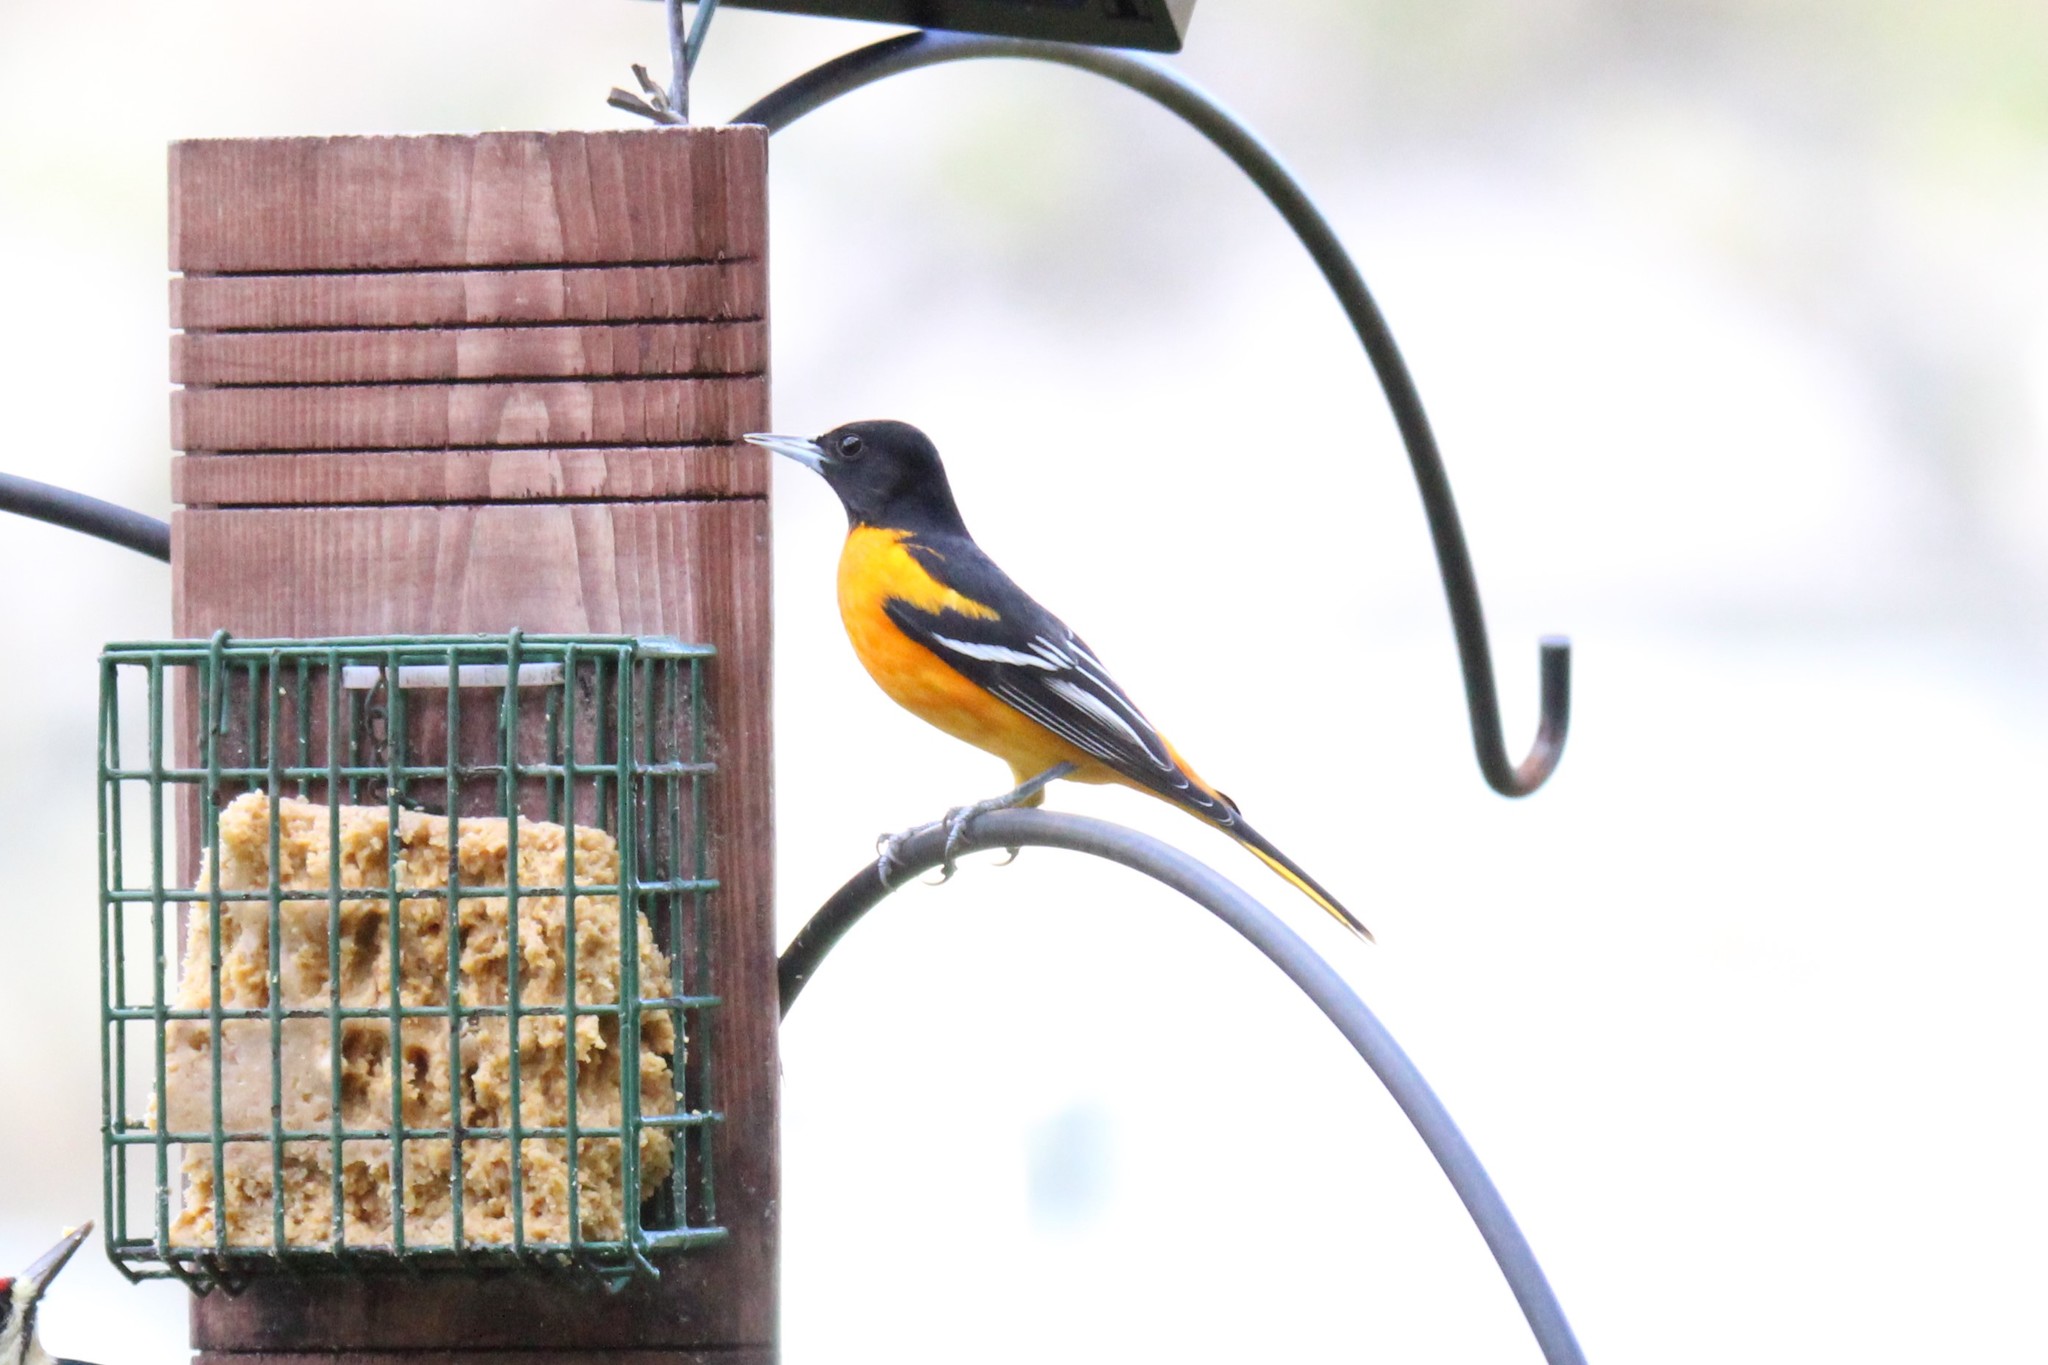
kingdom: Animalia
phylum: Chordata
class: Aves
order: Passeriformes
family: Icteridae
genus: Icterus
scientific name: Icterus galbula
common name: Baltimore oriole
